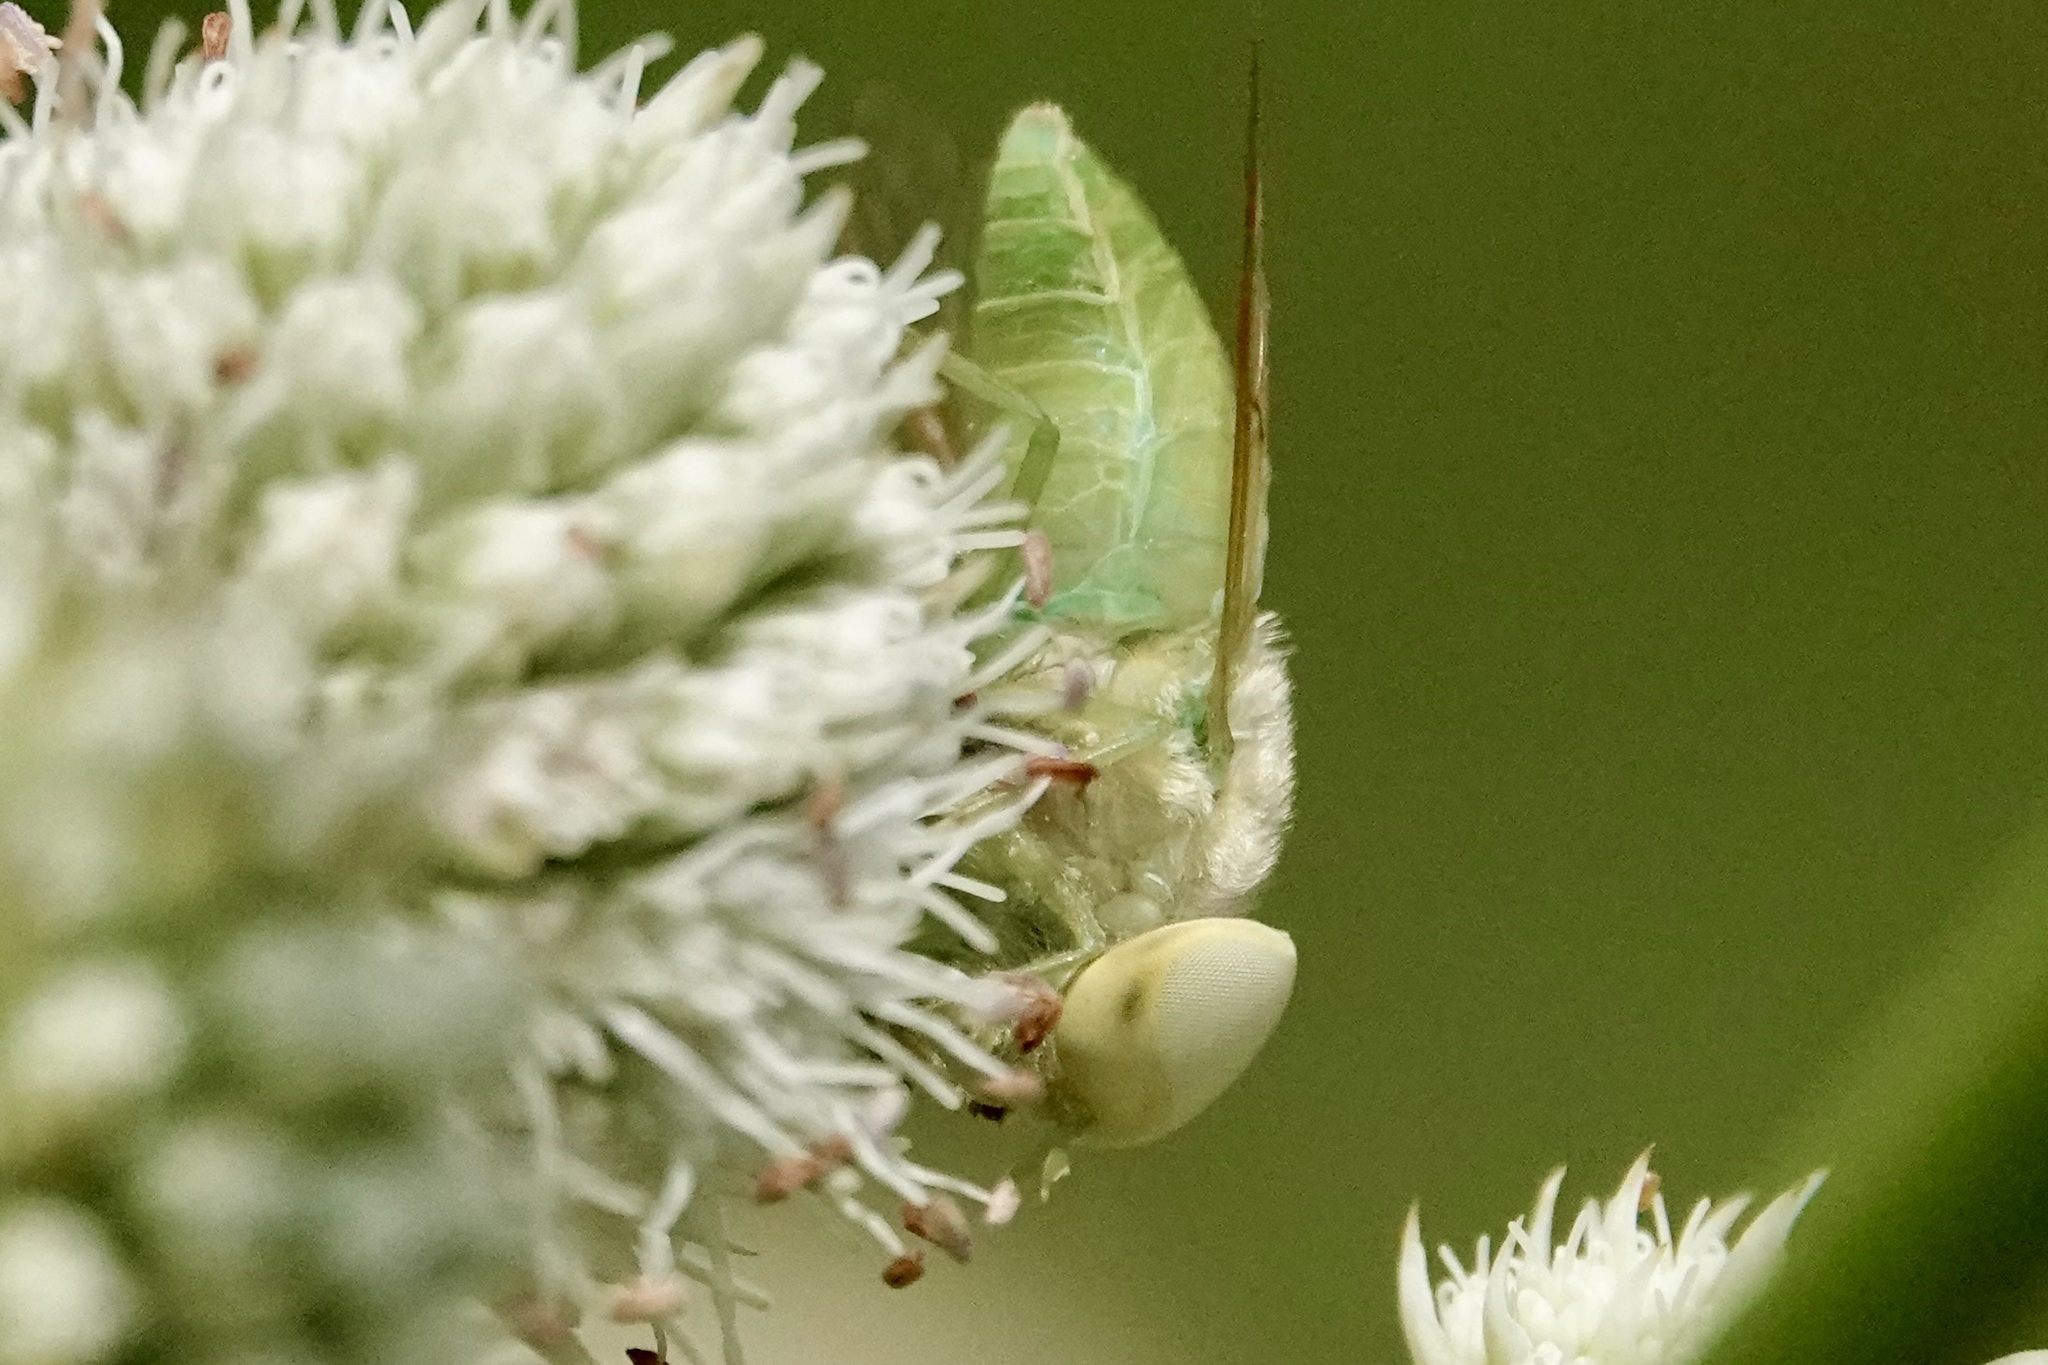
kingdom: Animalia
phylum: Arthropoda
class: Insecta
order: Diptera
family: Tabanidae
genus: Chlorotabanus
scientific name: Chlorotabanus crepuscularis
